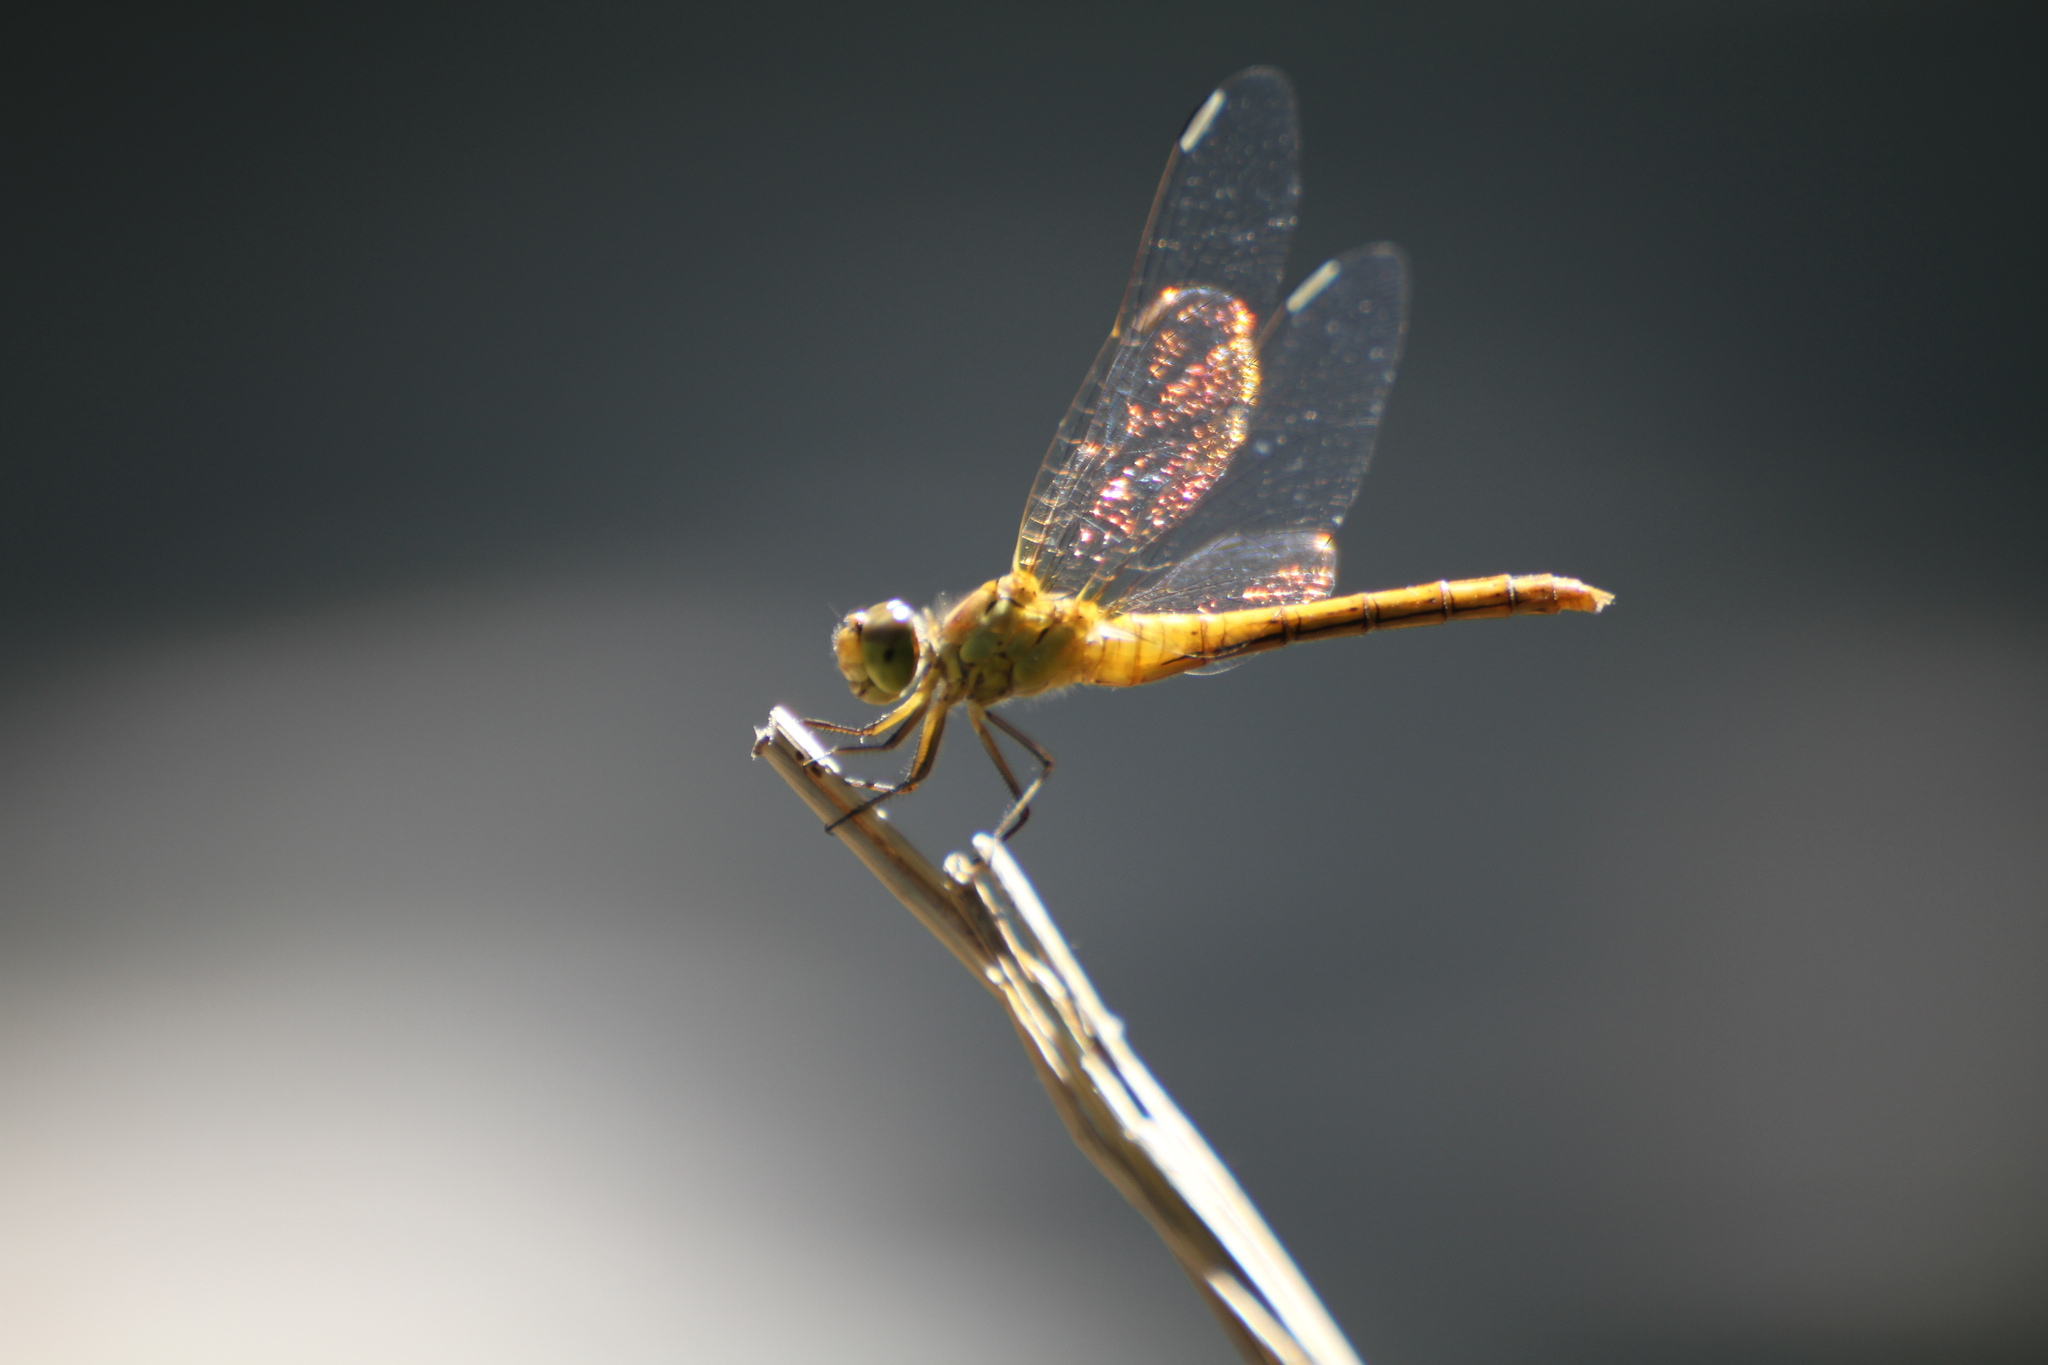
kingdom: Animalia
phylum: Arthropoda
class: Insecta
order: Odonata
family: Libellulidae
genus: Sympetrum
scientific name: Sympetrum meridionale
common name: Southern darter
